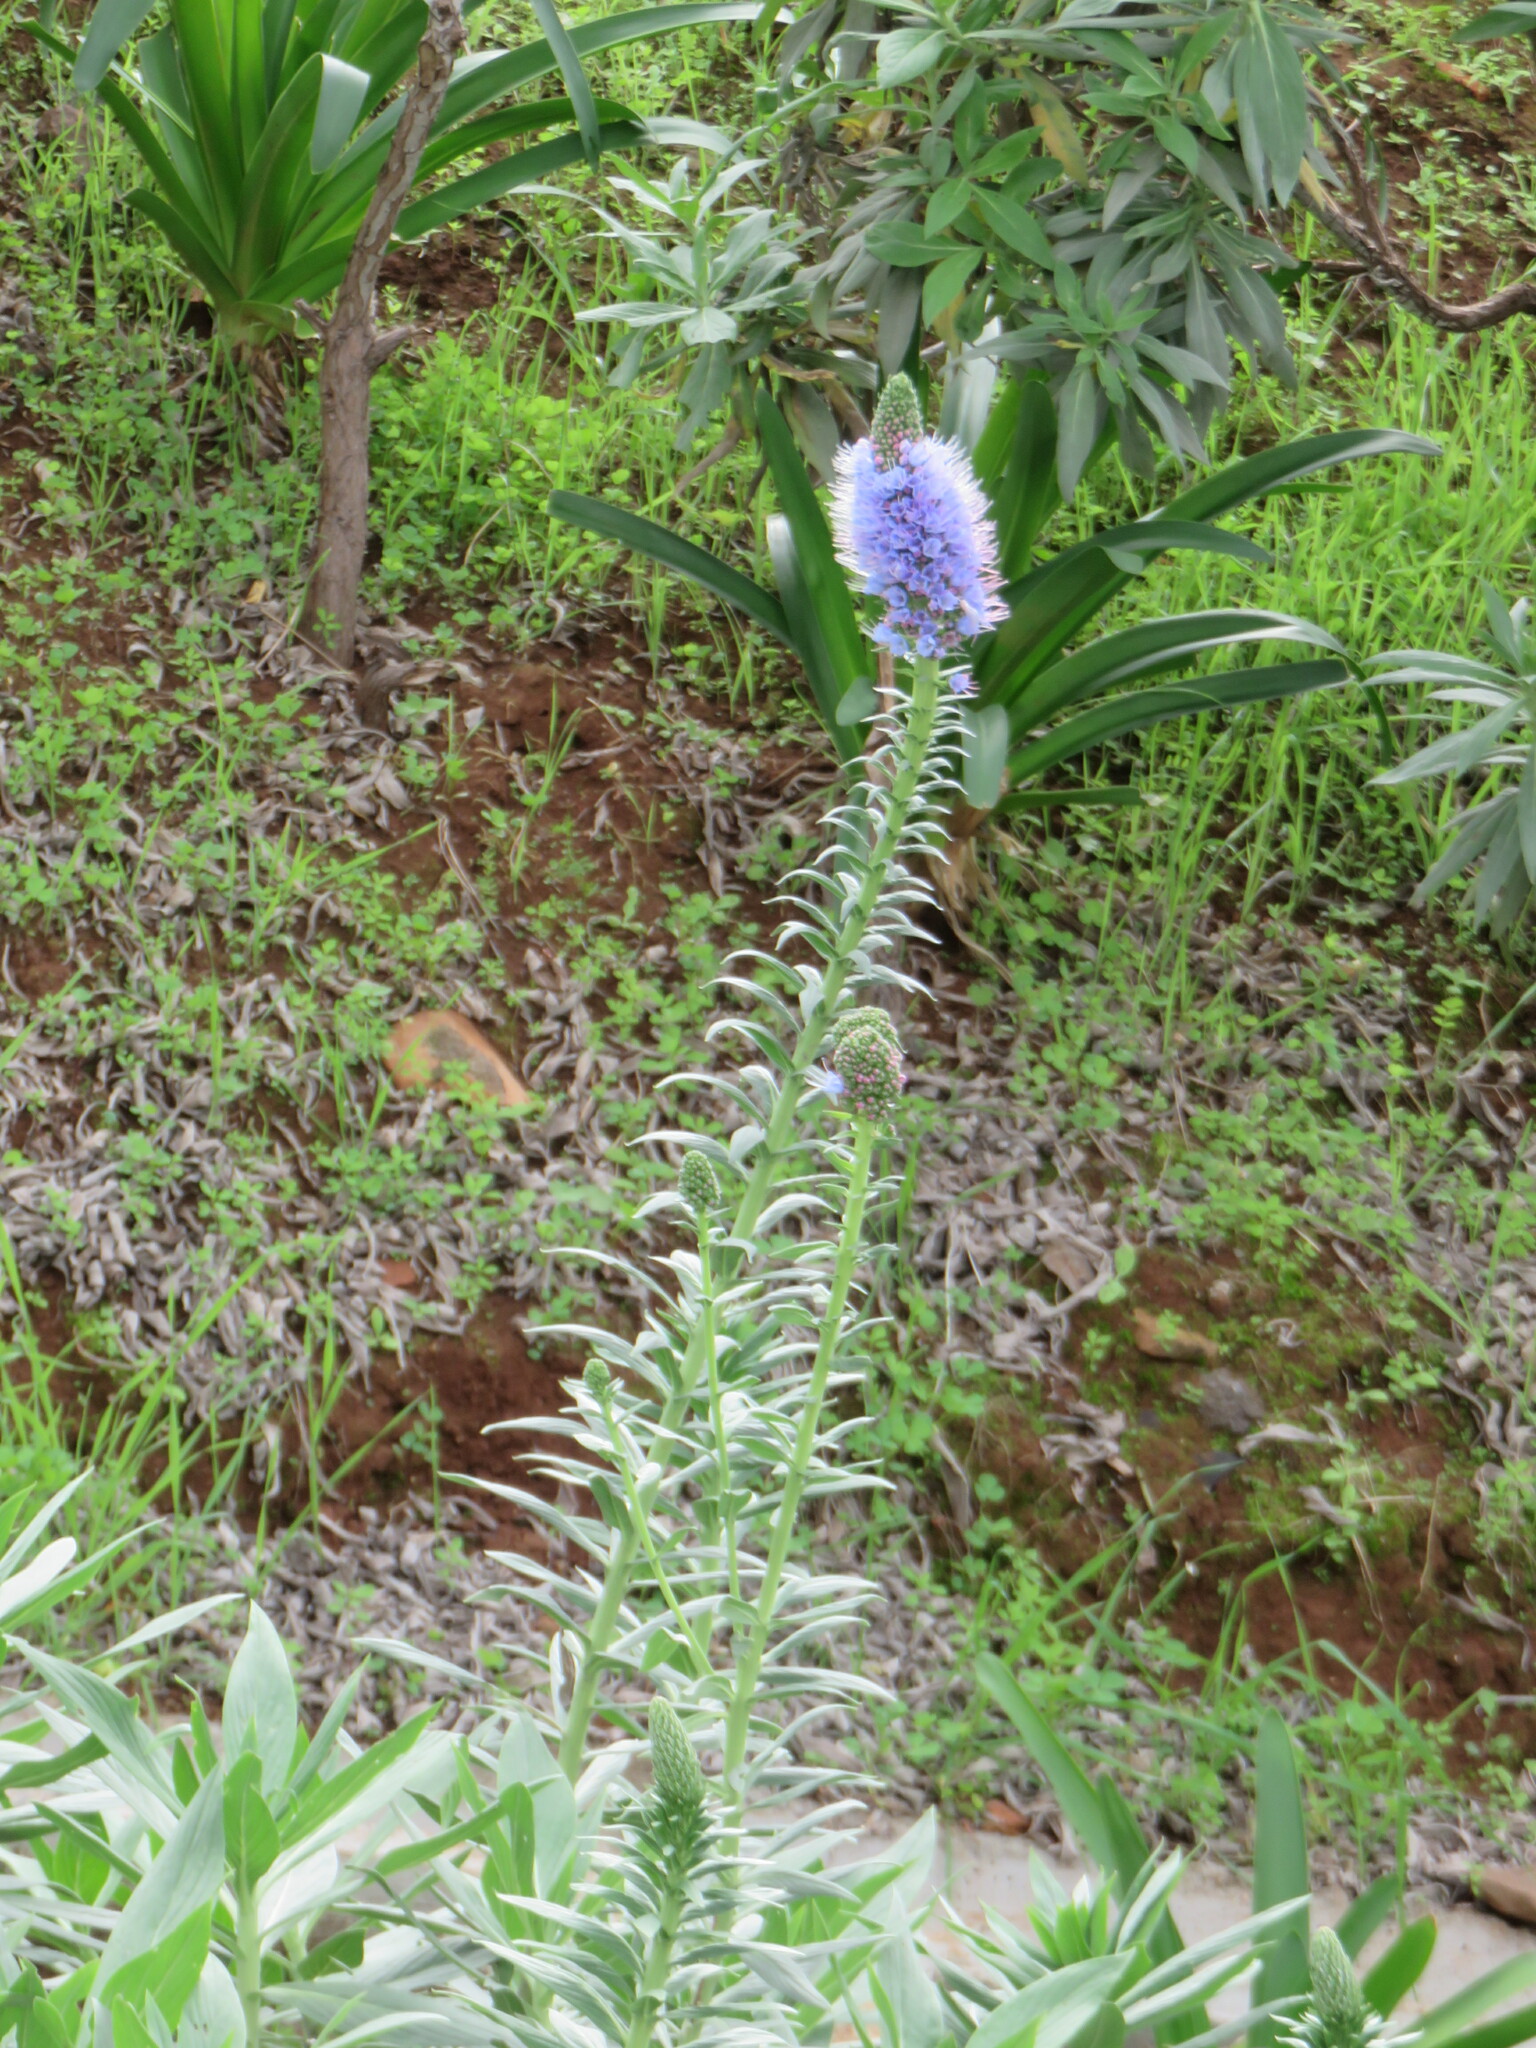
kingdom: Plantae
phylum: Tracheophyta
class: Magnoliopsida
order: Boraginales
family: Boraginaceae
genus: Echium
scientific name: Echium nervosum
